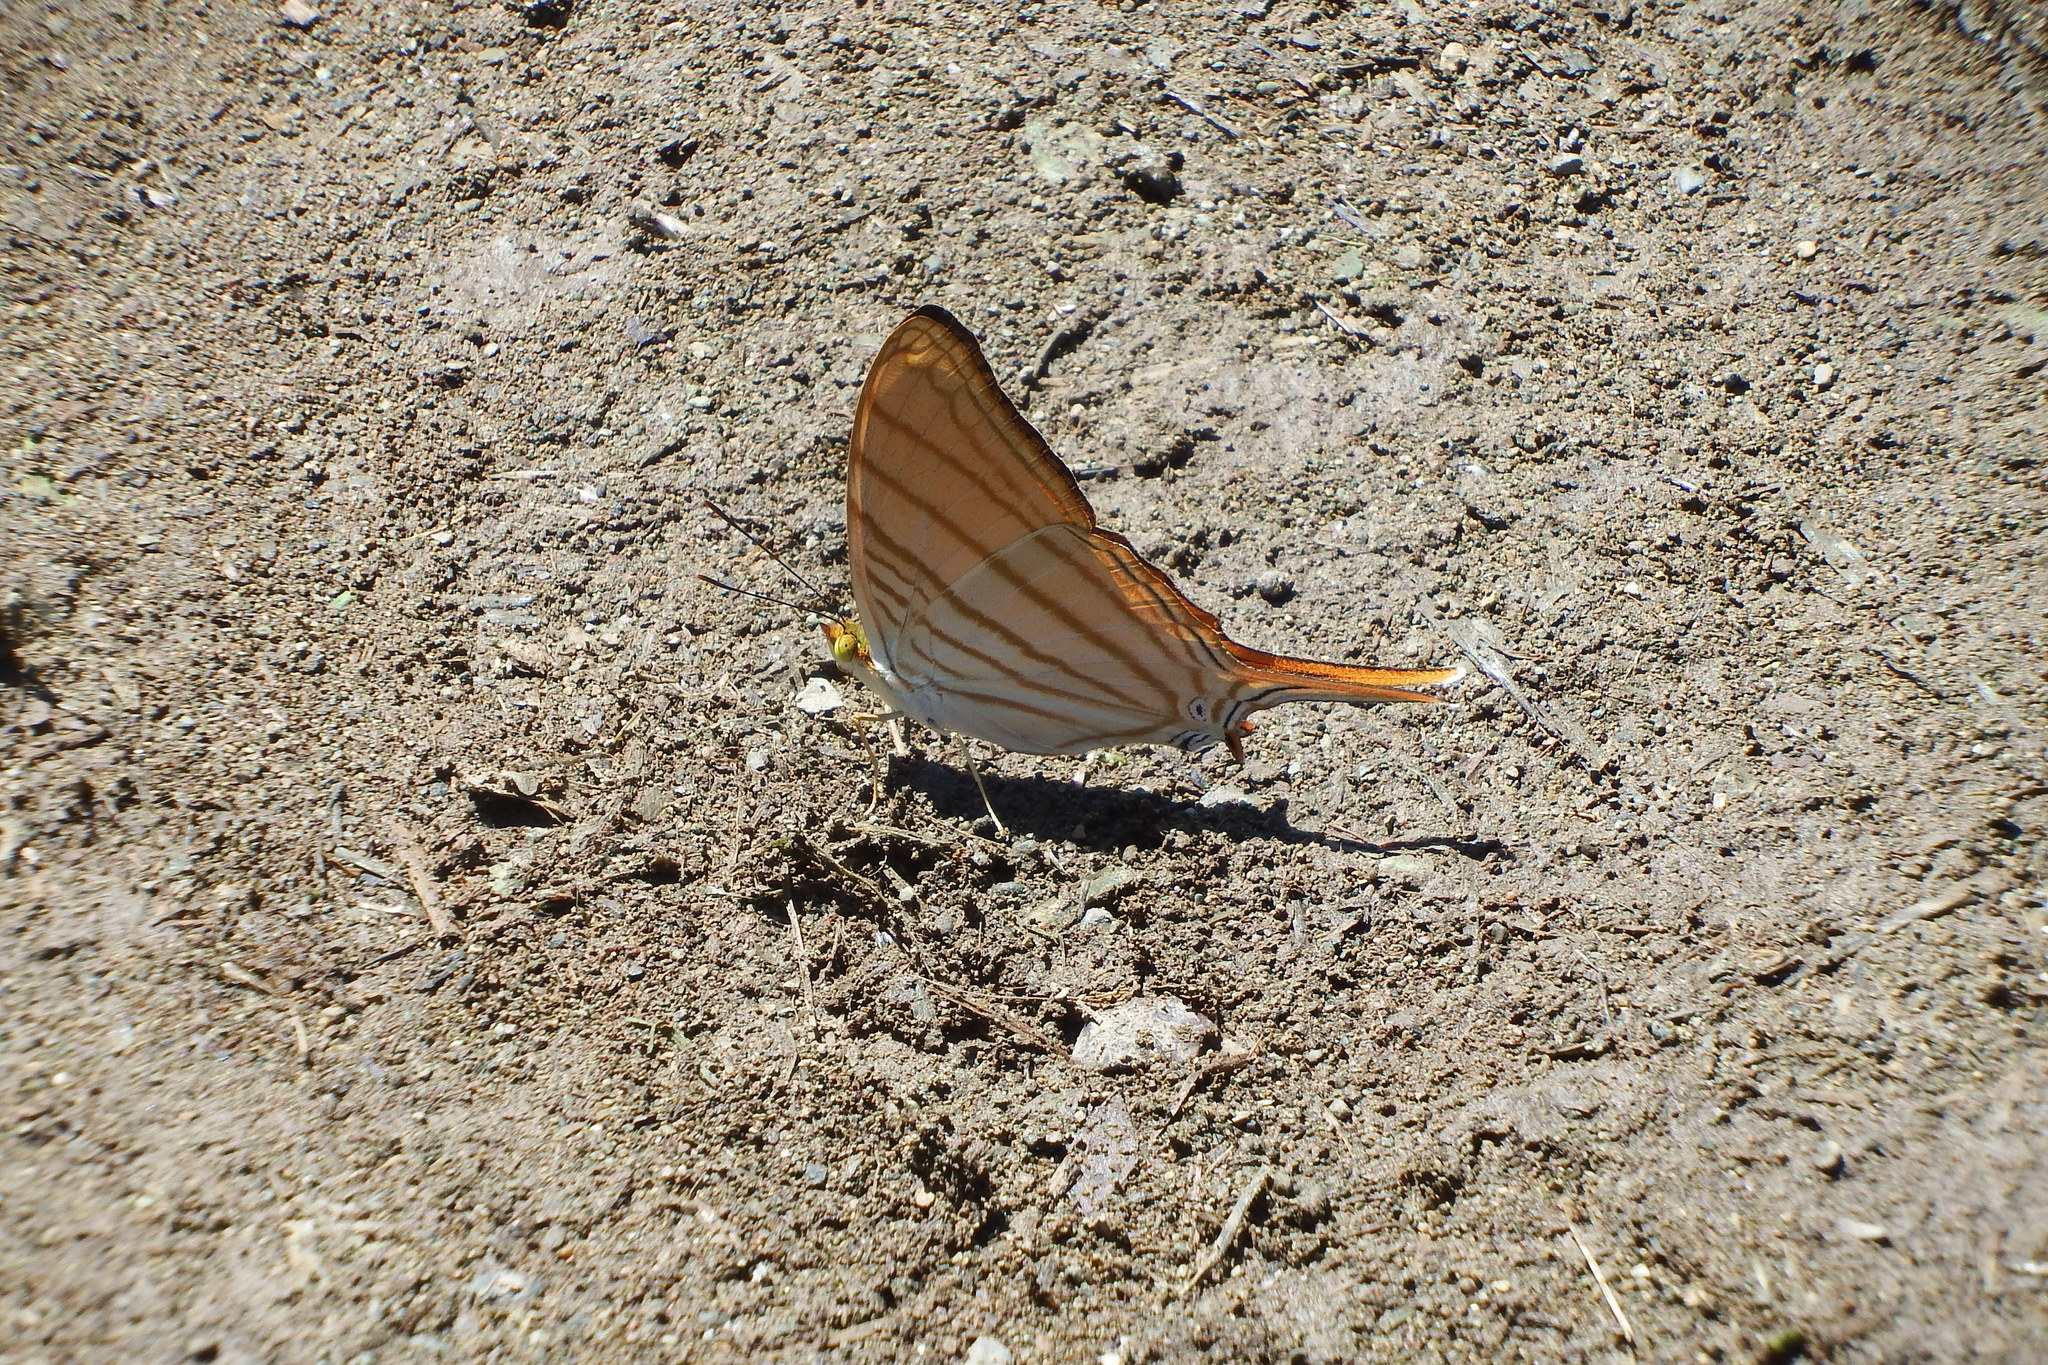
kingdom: Animalia
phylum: Arthropoda
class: Insecta
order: Lepidoptera
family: Nymphalidae
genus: Marpesia
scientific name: Marpesia berania
